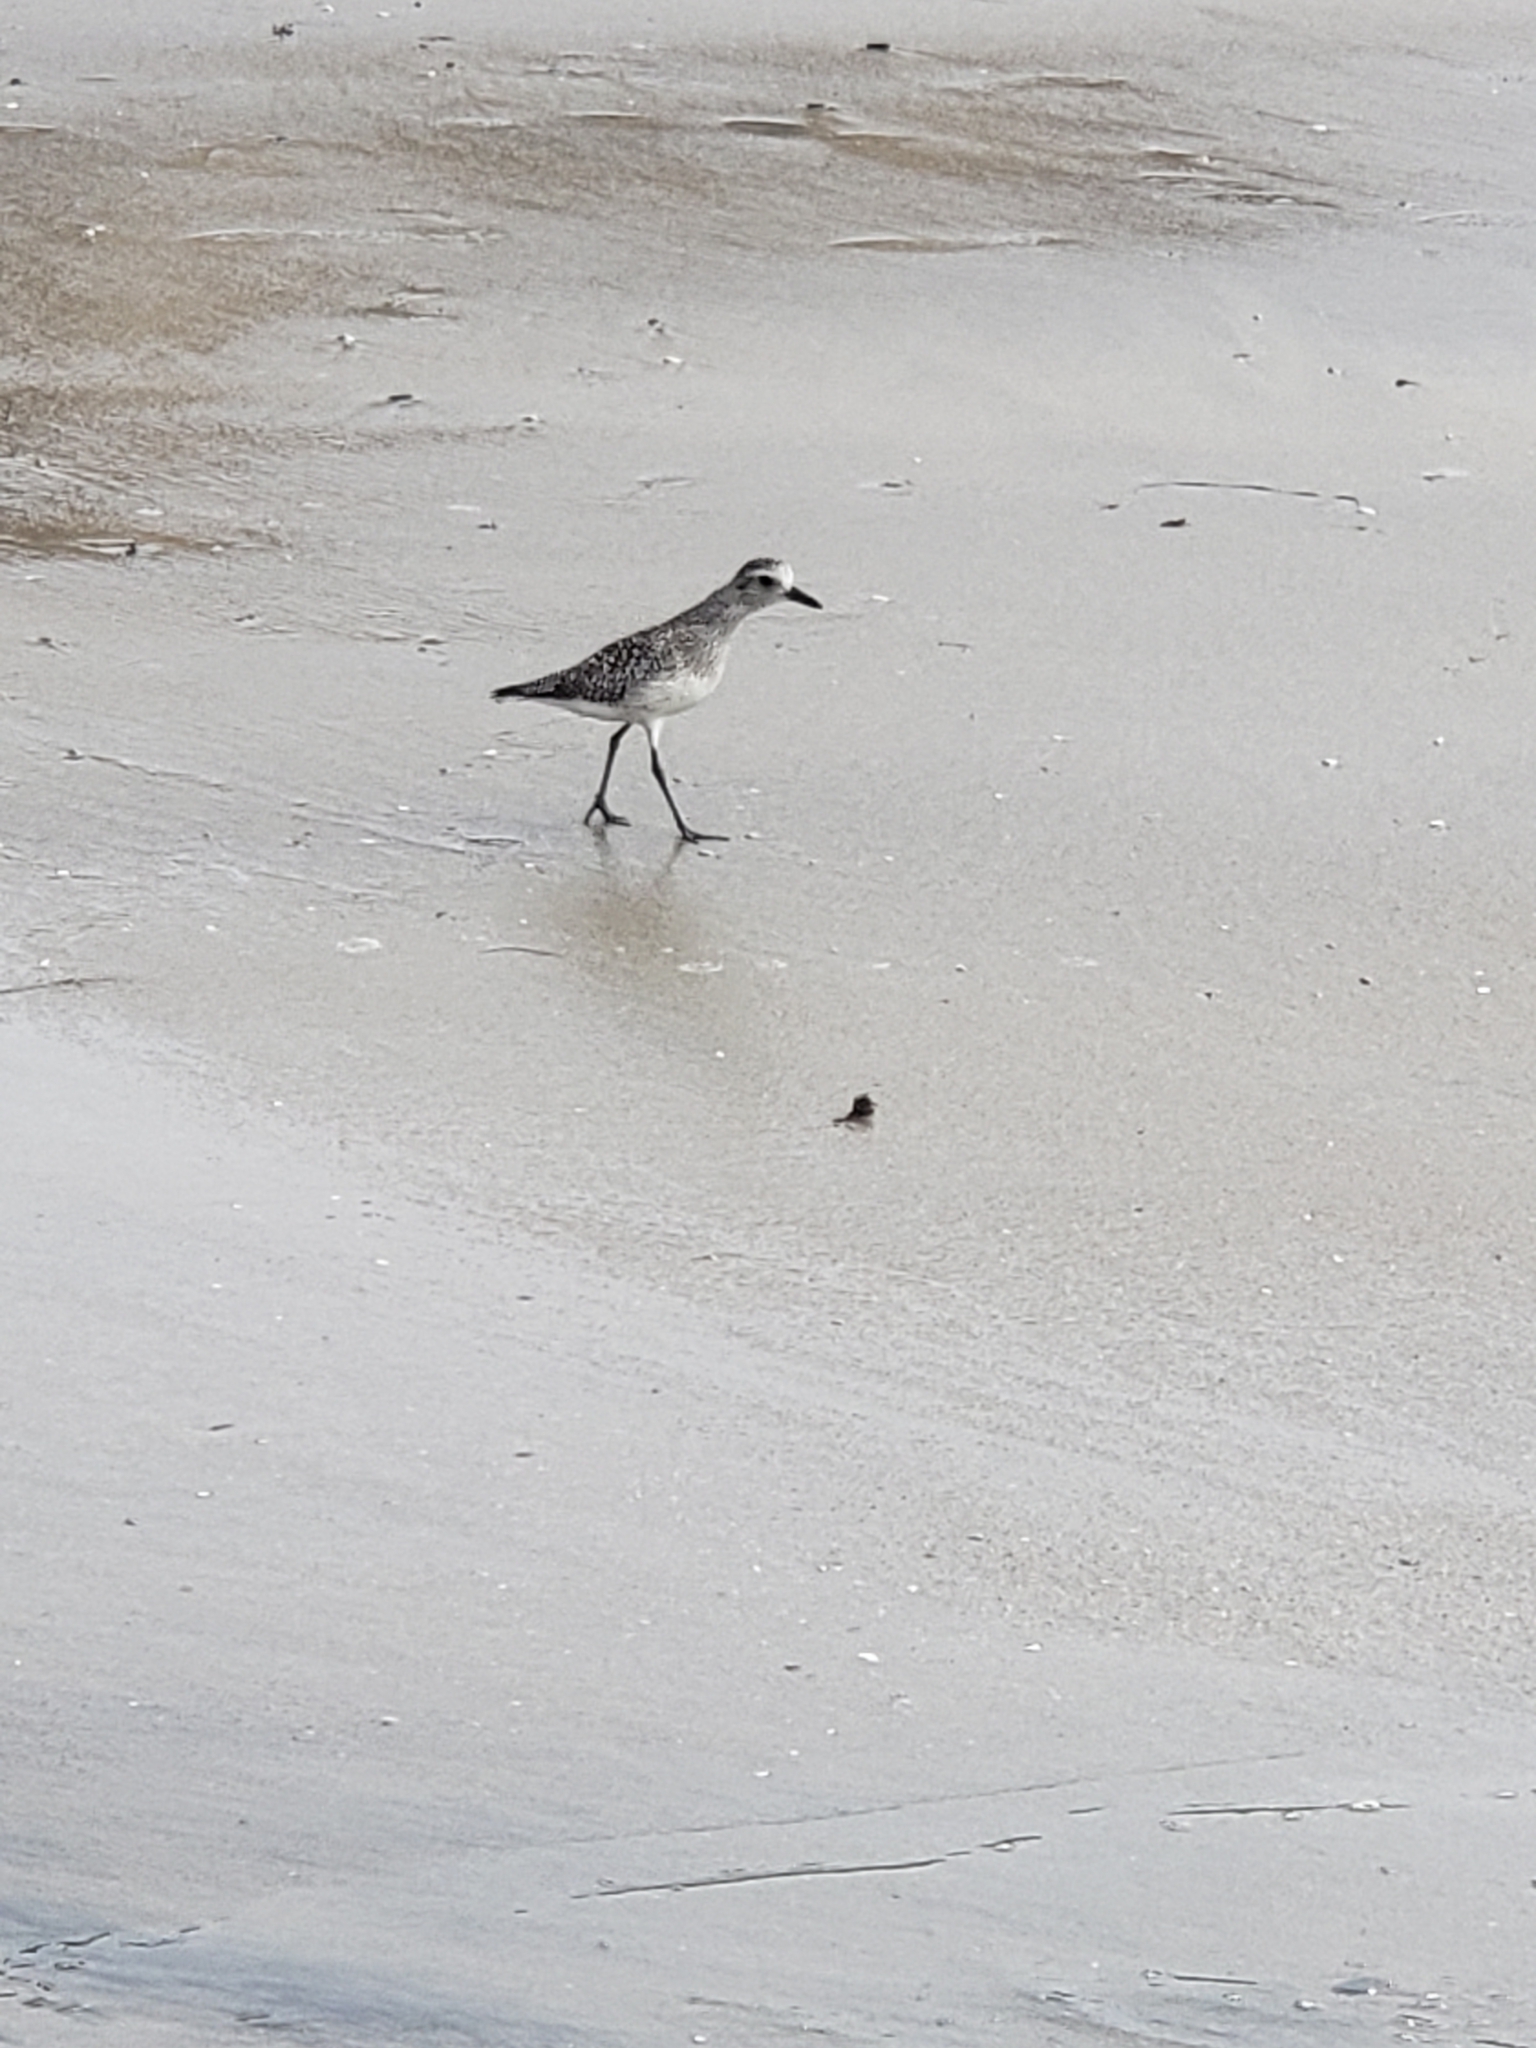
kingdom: Animalia
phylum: Chordata
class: Aves
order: Charadriiformes
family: Charadriidae
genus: Pluvialis
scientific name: Pluvialis squatarola
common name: Grey plover
